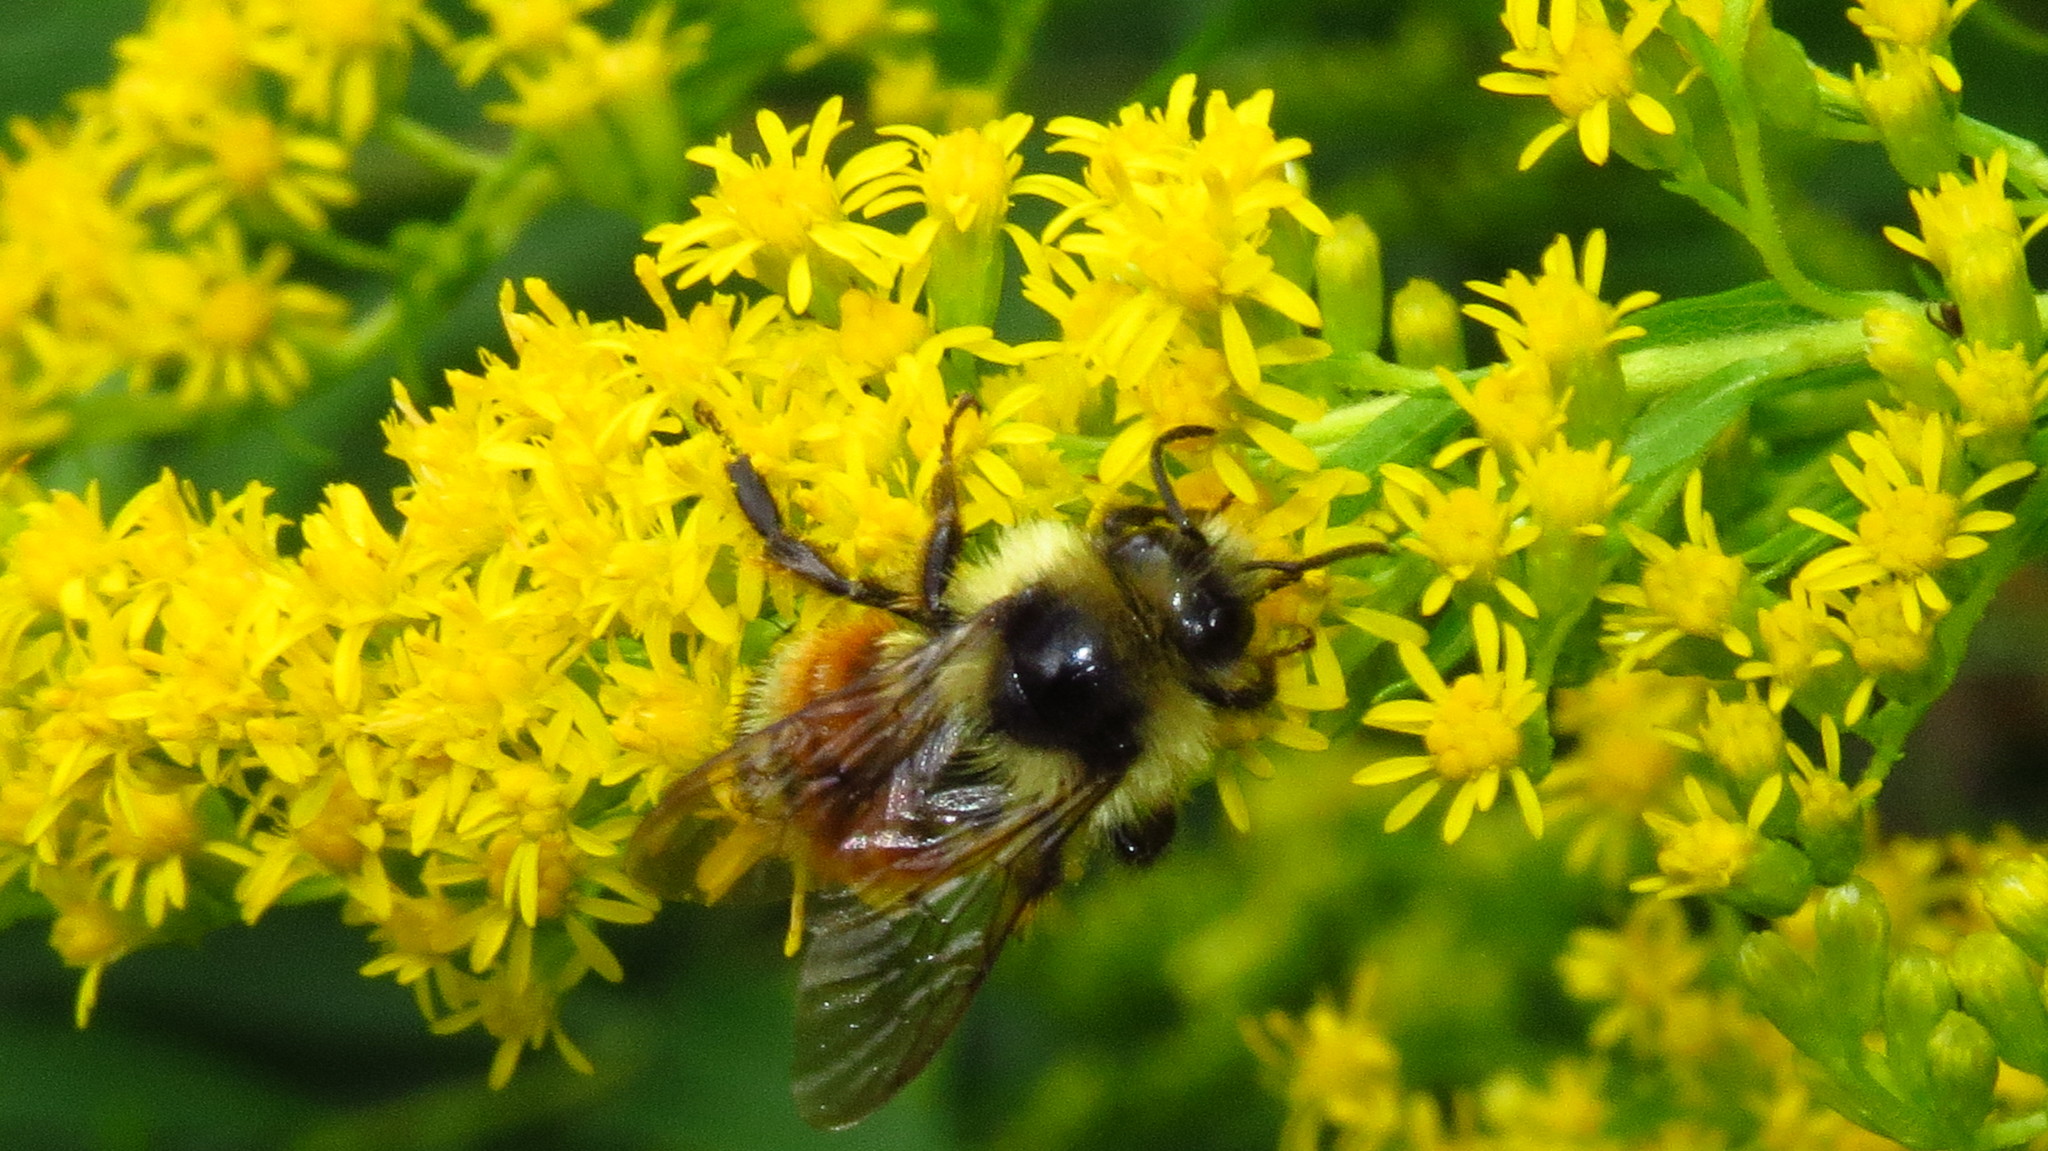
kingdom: Animalia
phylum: Arthropoda
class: Insecta
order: Hymenoptera
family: Apidae
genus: Bombus
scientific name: Bombus ternarius
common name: Tri-colored bumble bee
